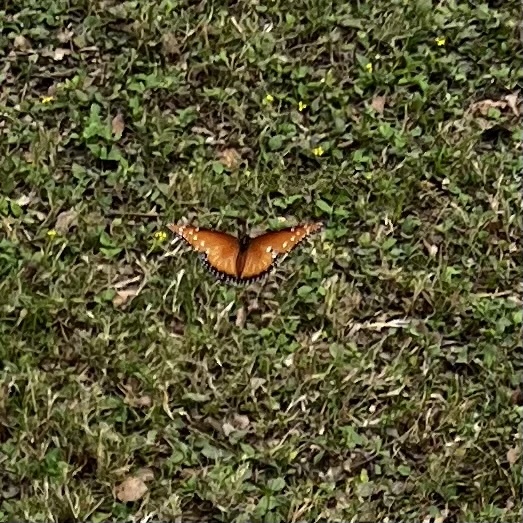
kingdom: Animalia
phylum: Arthropoda
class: Insecta
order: Lepidoptera
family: Nymphalidae
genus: Danaus
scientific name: Danaus gilippus
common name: Queen
